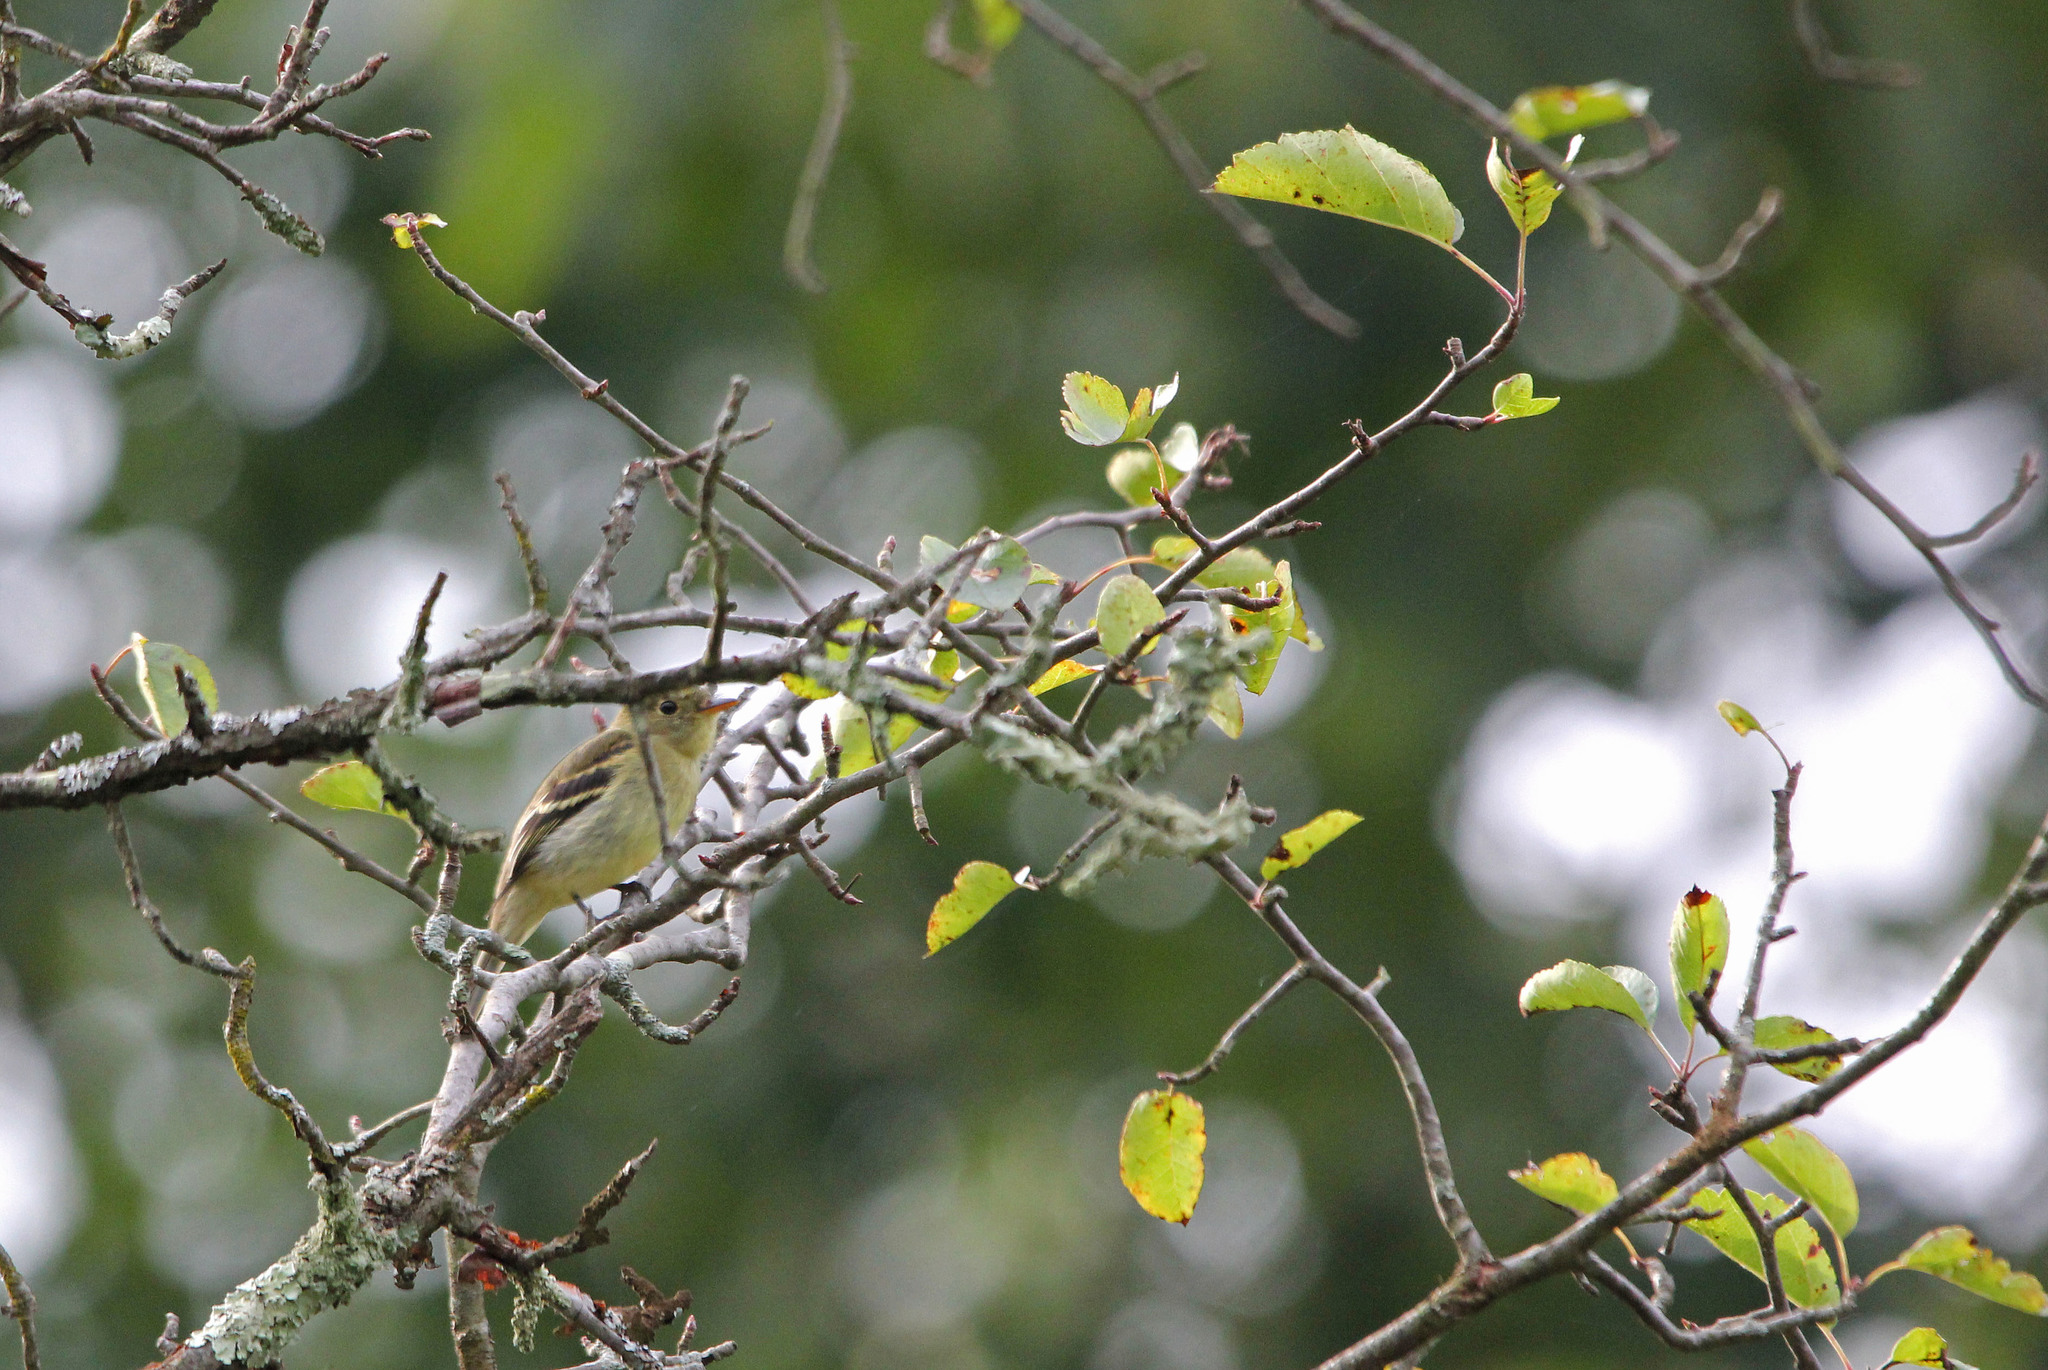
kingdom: Animalia
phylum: Chordata
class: Aves
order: Passeriformes
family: Tyrannidae
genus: Empidonax
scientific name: Empidonax flaviventris
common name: Yellow-bellied flycatcher
